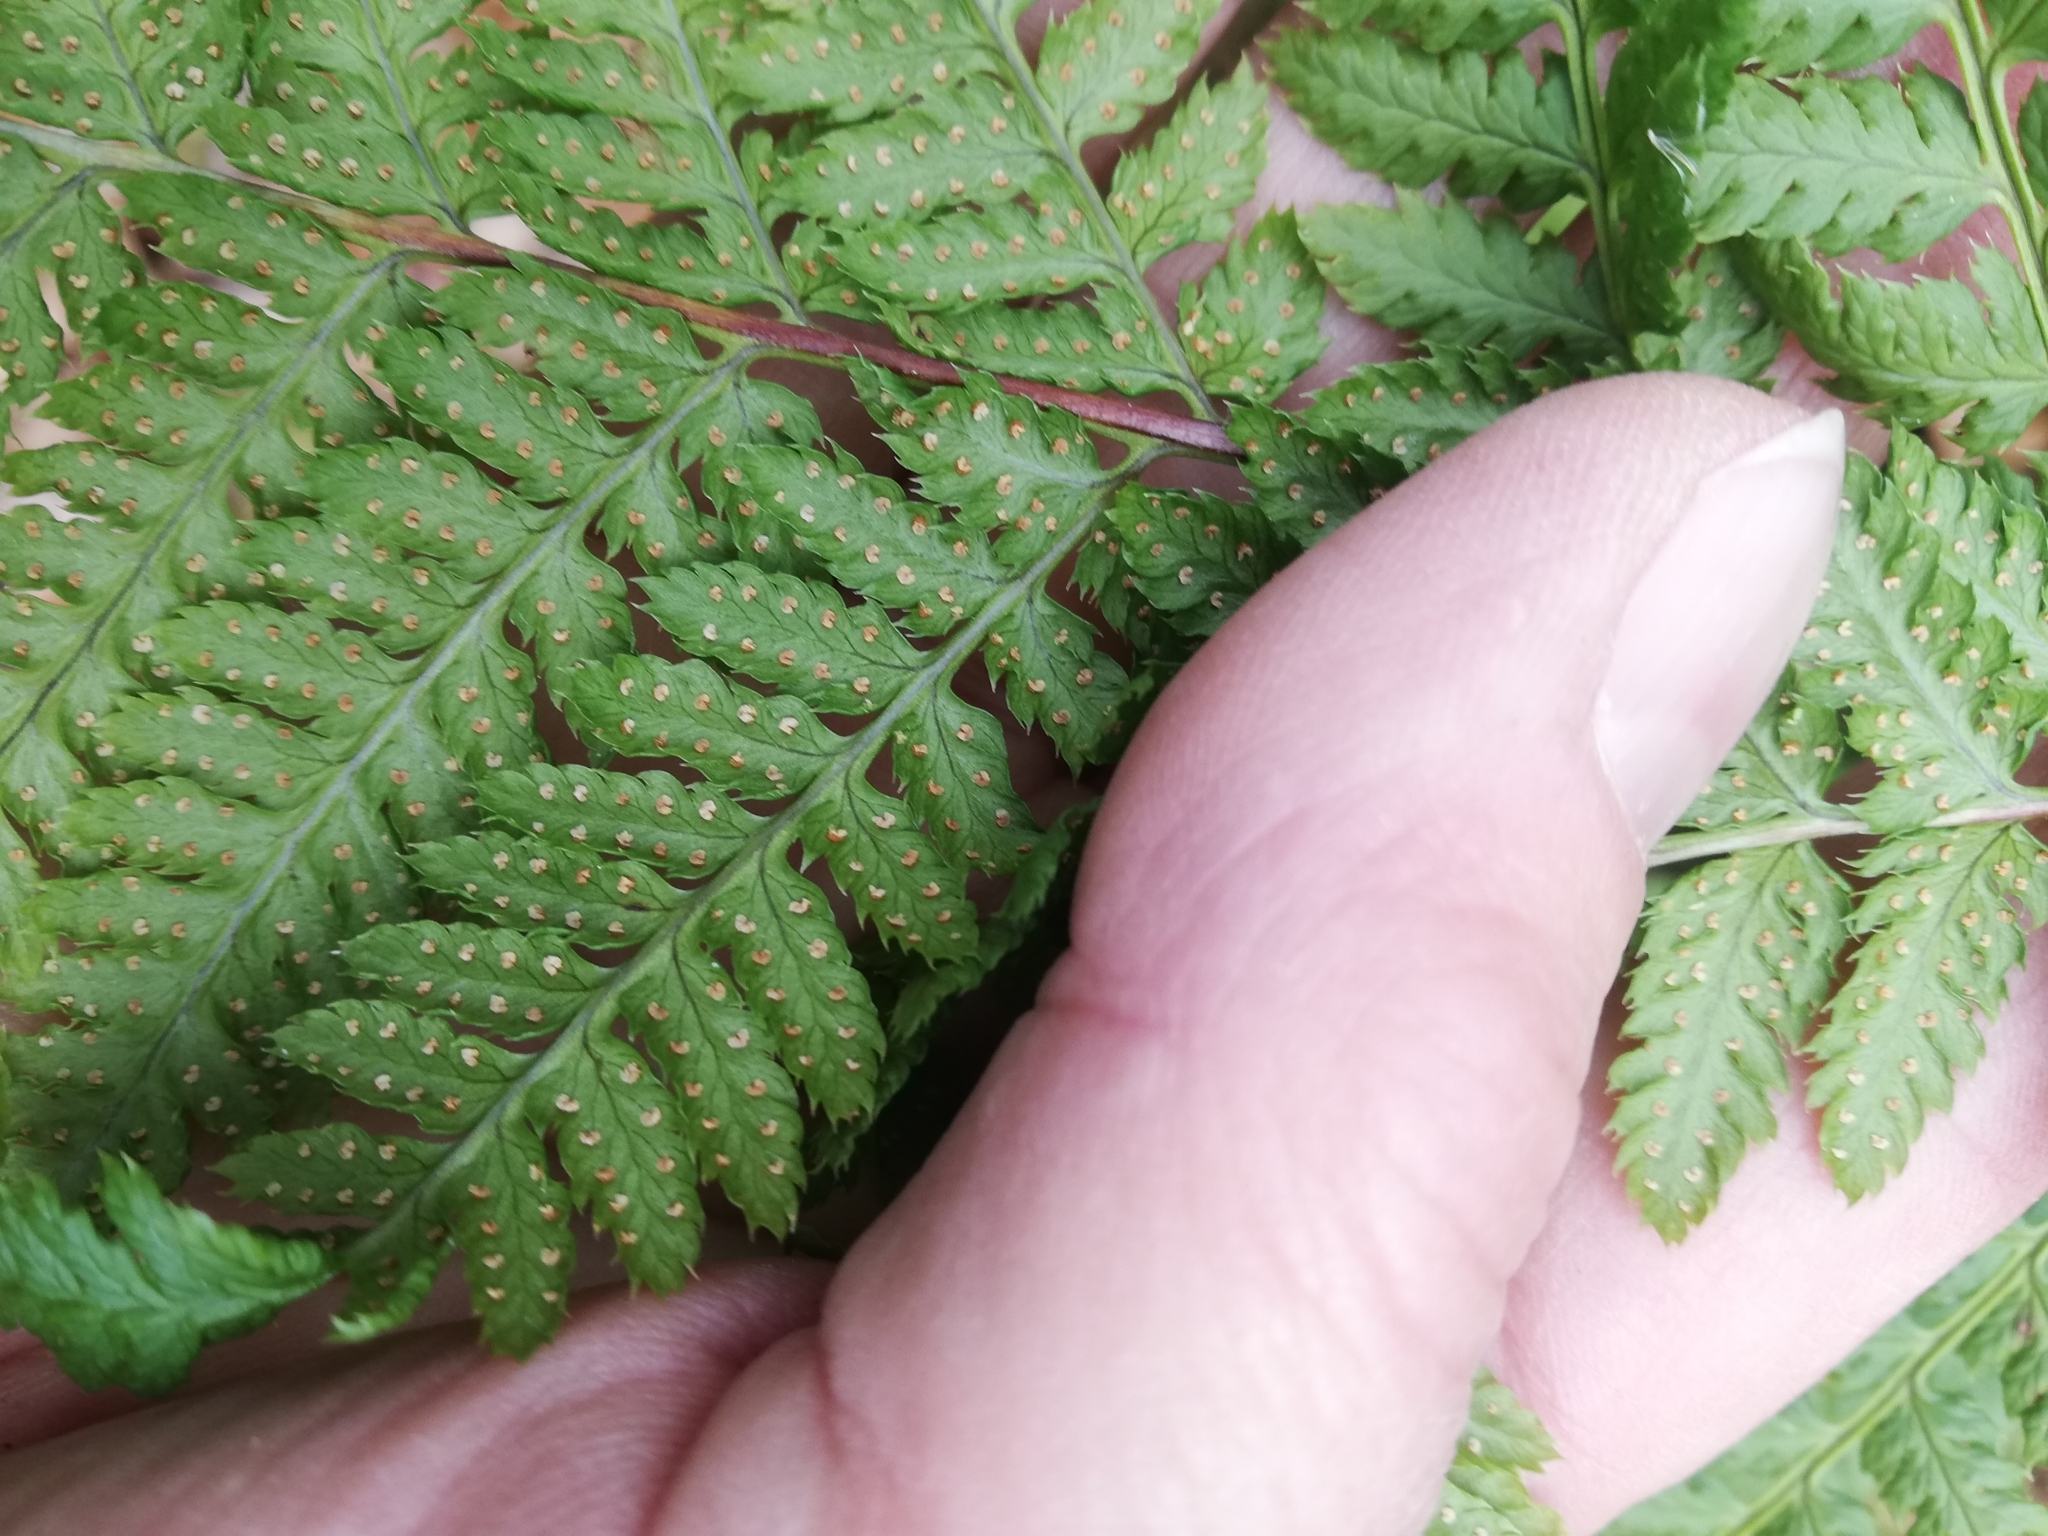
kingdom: Plantae
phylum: Tracheophyta
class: Polypodiopsida
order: Polypodiales
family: Dryopteridaceae
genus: Dryopteris
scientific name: Dryopteris carthusiana
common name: Narrow buckler-fern
